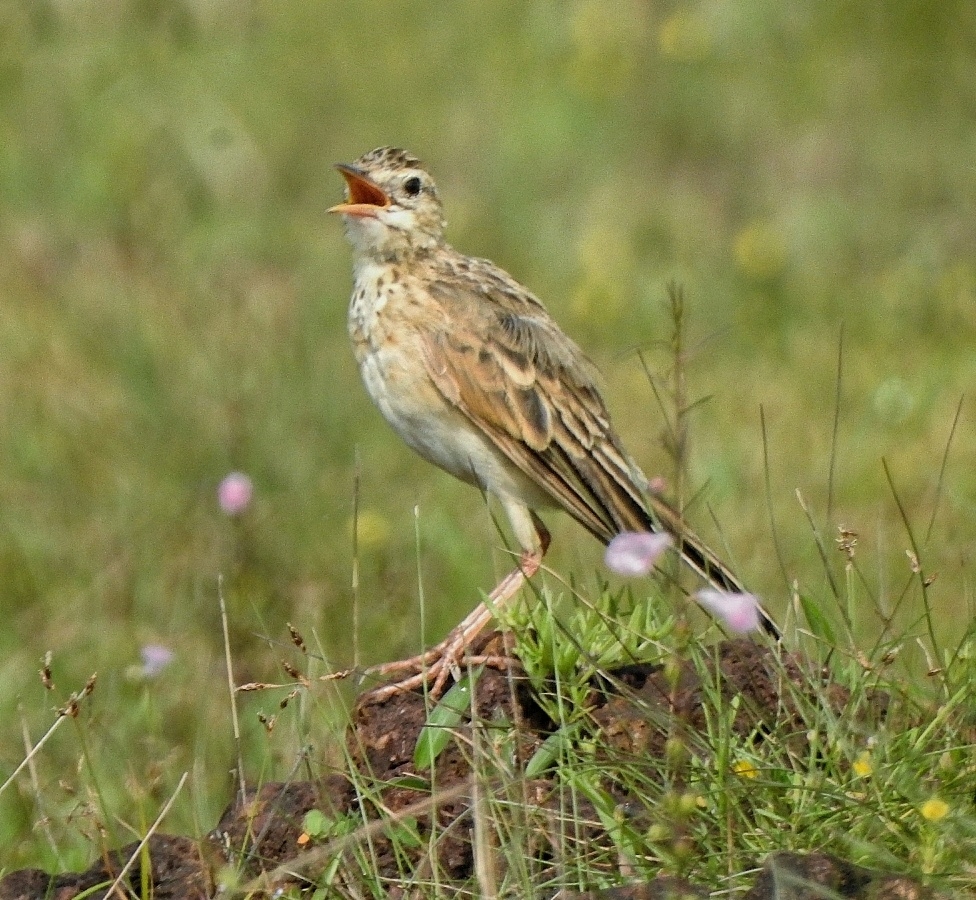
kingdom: Animalia
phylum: Chordata
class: Aves
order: Passeriformes
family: Motacillidae
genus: Anthus
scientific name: Anthus rufulus
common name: Paddyfield pipit
